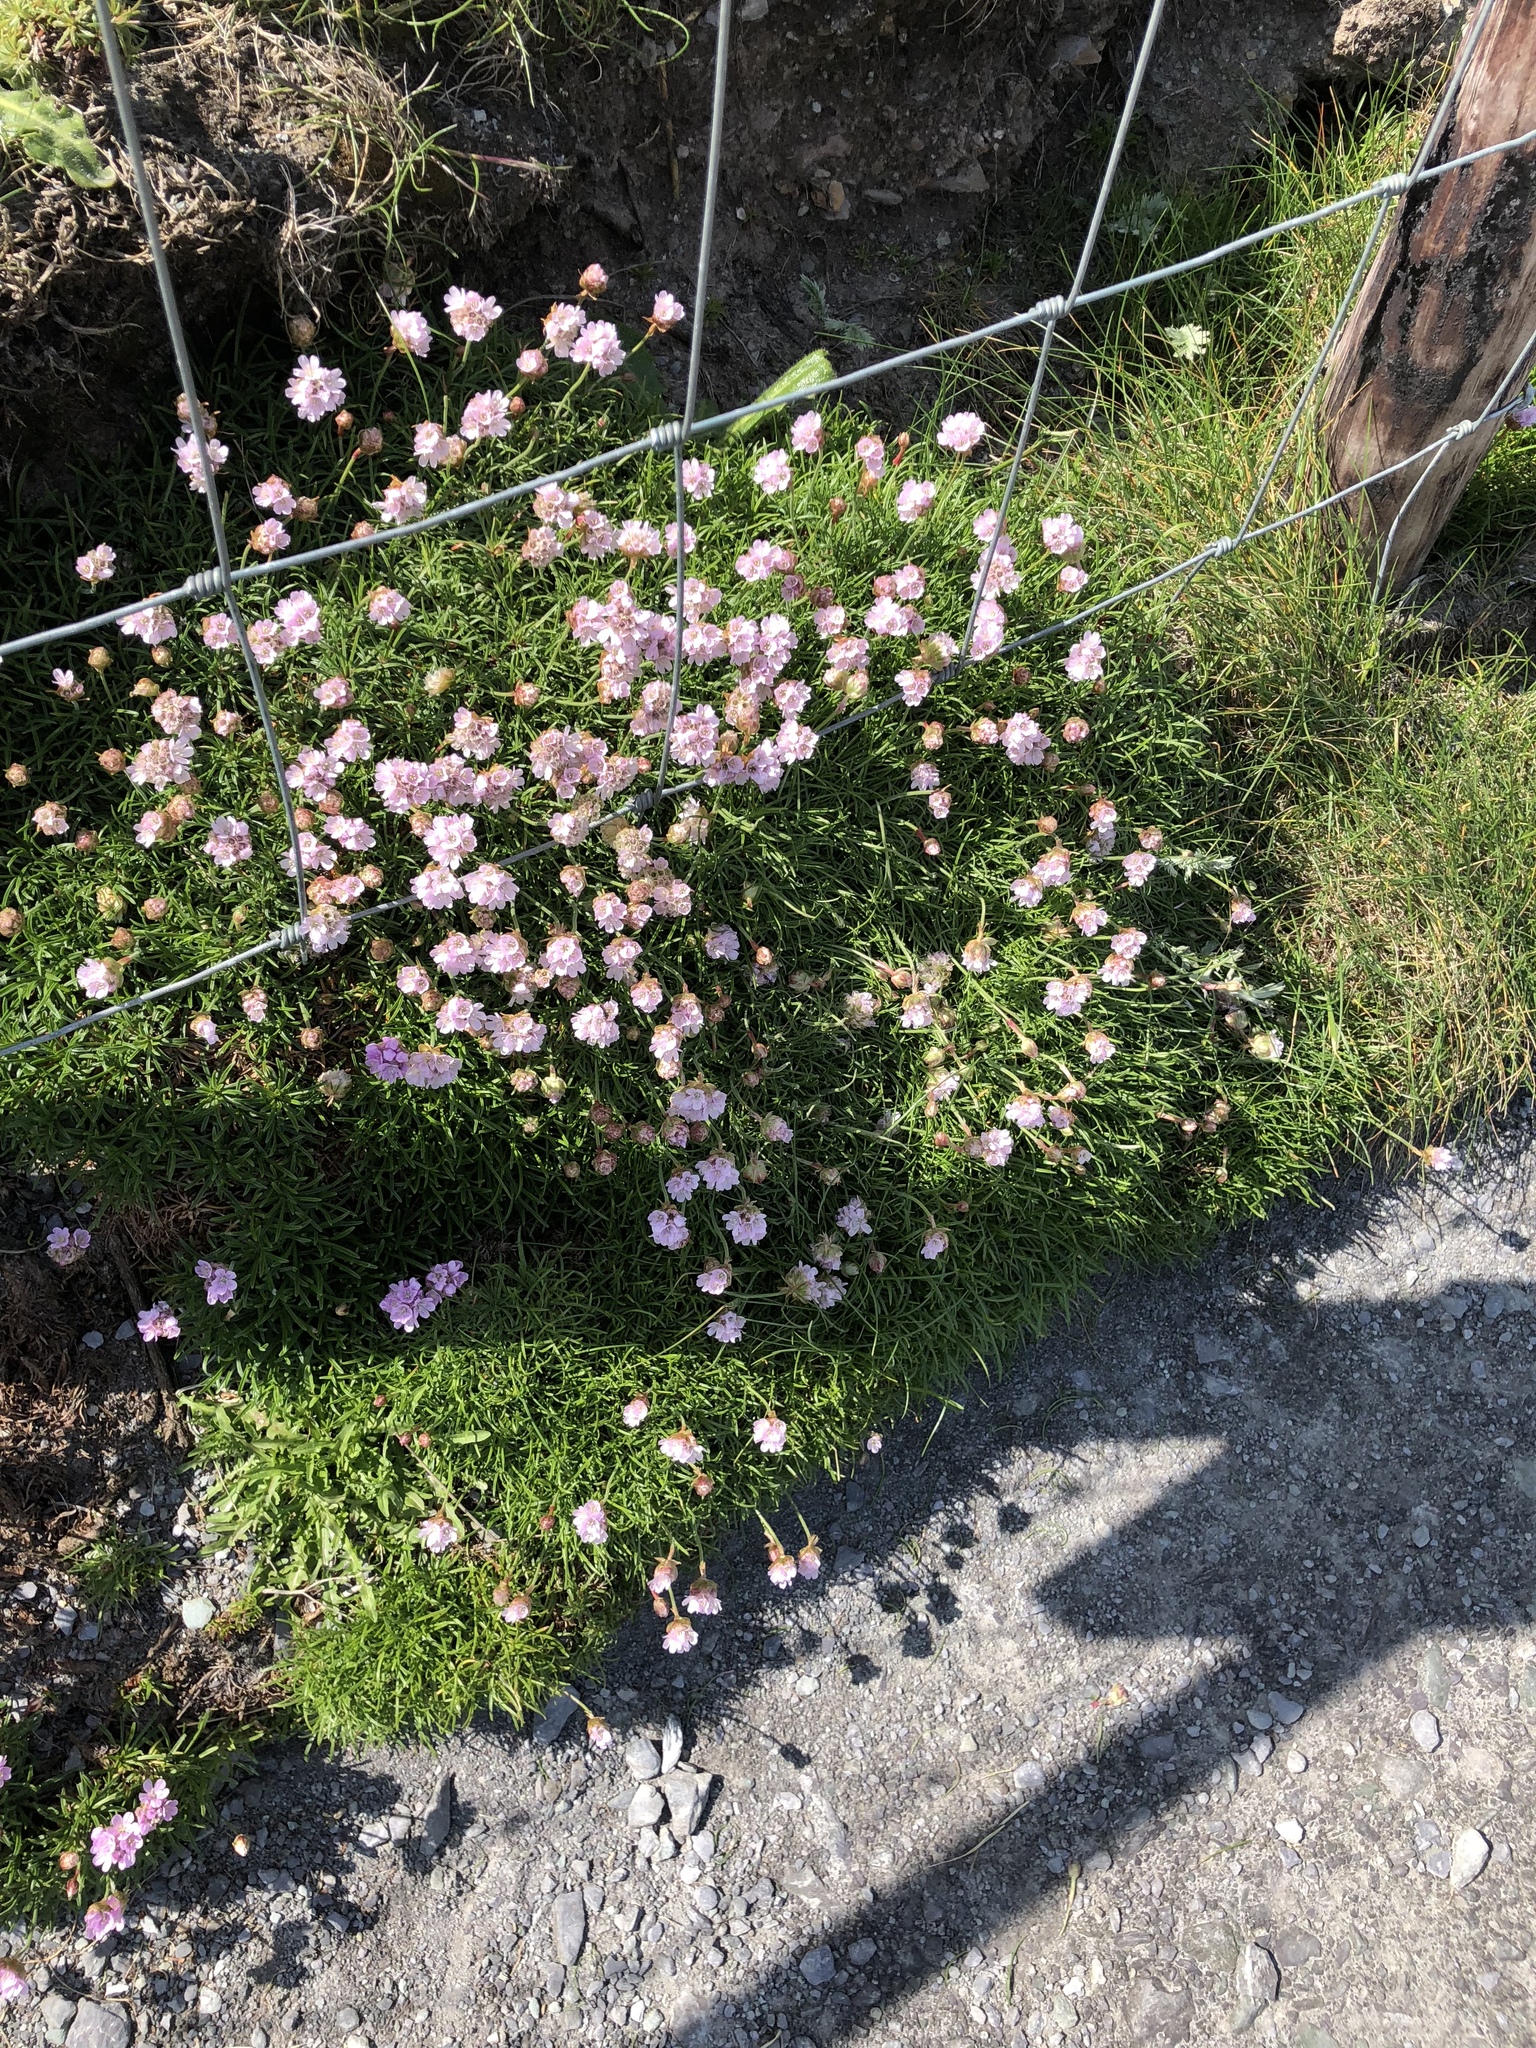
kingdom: Plantae
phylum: Tracheophyta
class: Magnoliopsida
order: Caryophyllales
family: Plumbaginaceae
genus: Armeria
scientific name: Armeria maritima
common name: Thrift
